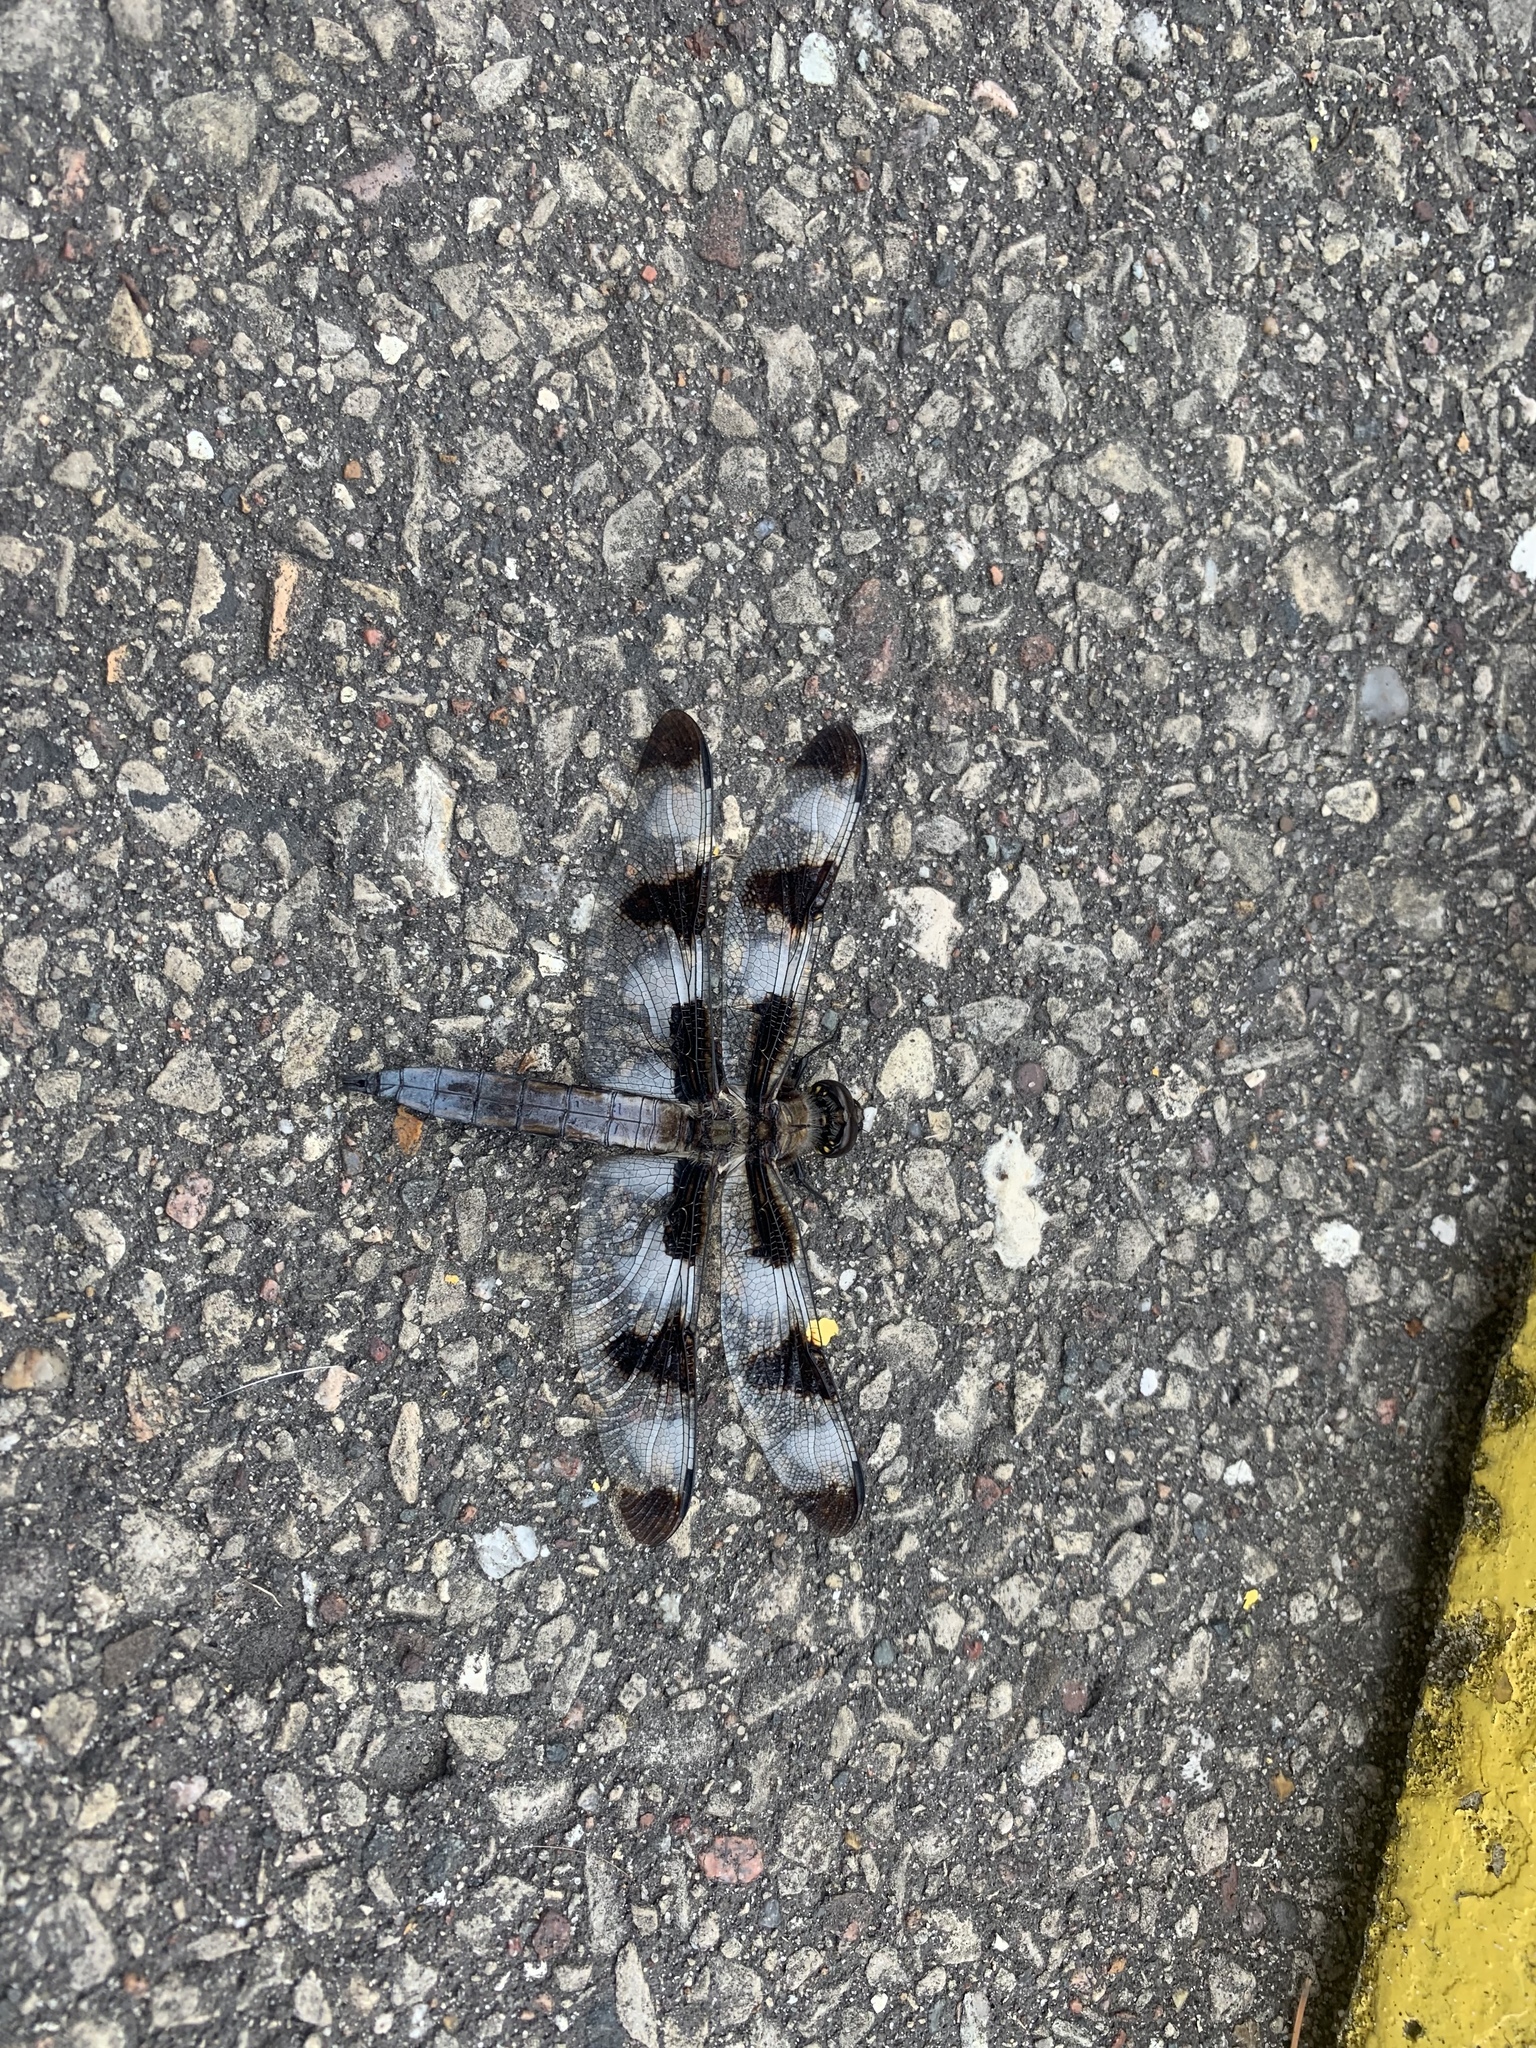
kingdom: Animalia
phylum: Arthropoda
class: Insecta
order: Odonata
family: Libellulidae
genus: Libellula
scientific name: Libellula pulchella
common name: Twelve-spotted skimmer
